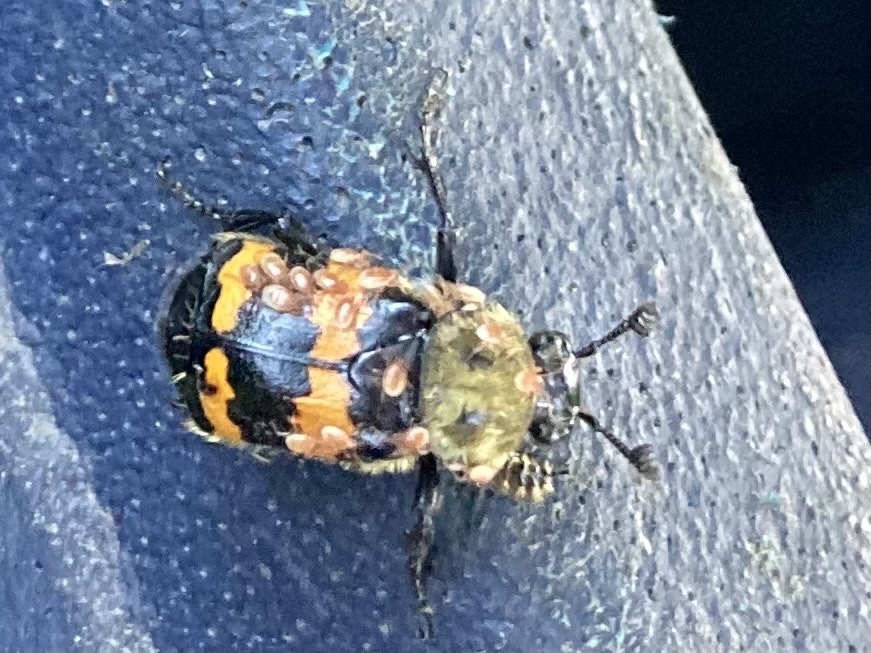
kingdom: Animalia
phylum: Arthropoda
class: Insecta
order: Coleoptera
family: Staphylinidae
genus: Nicrophorus
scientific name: Nicrophorus tomentosus
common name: Tomentose burying beetle
